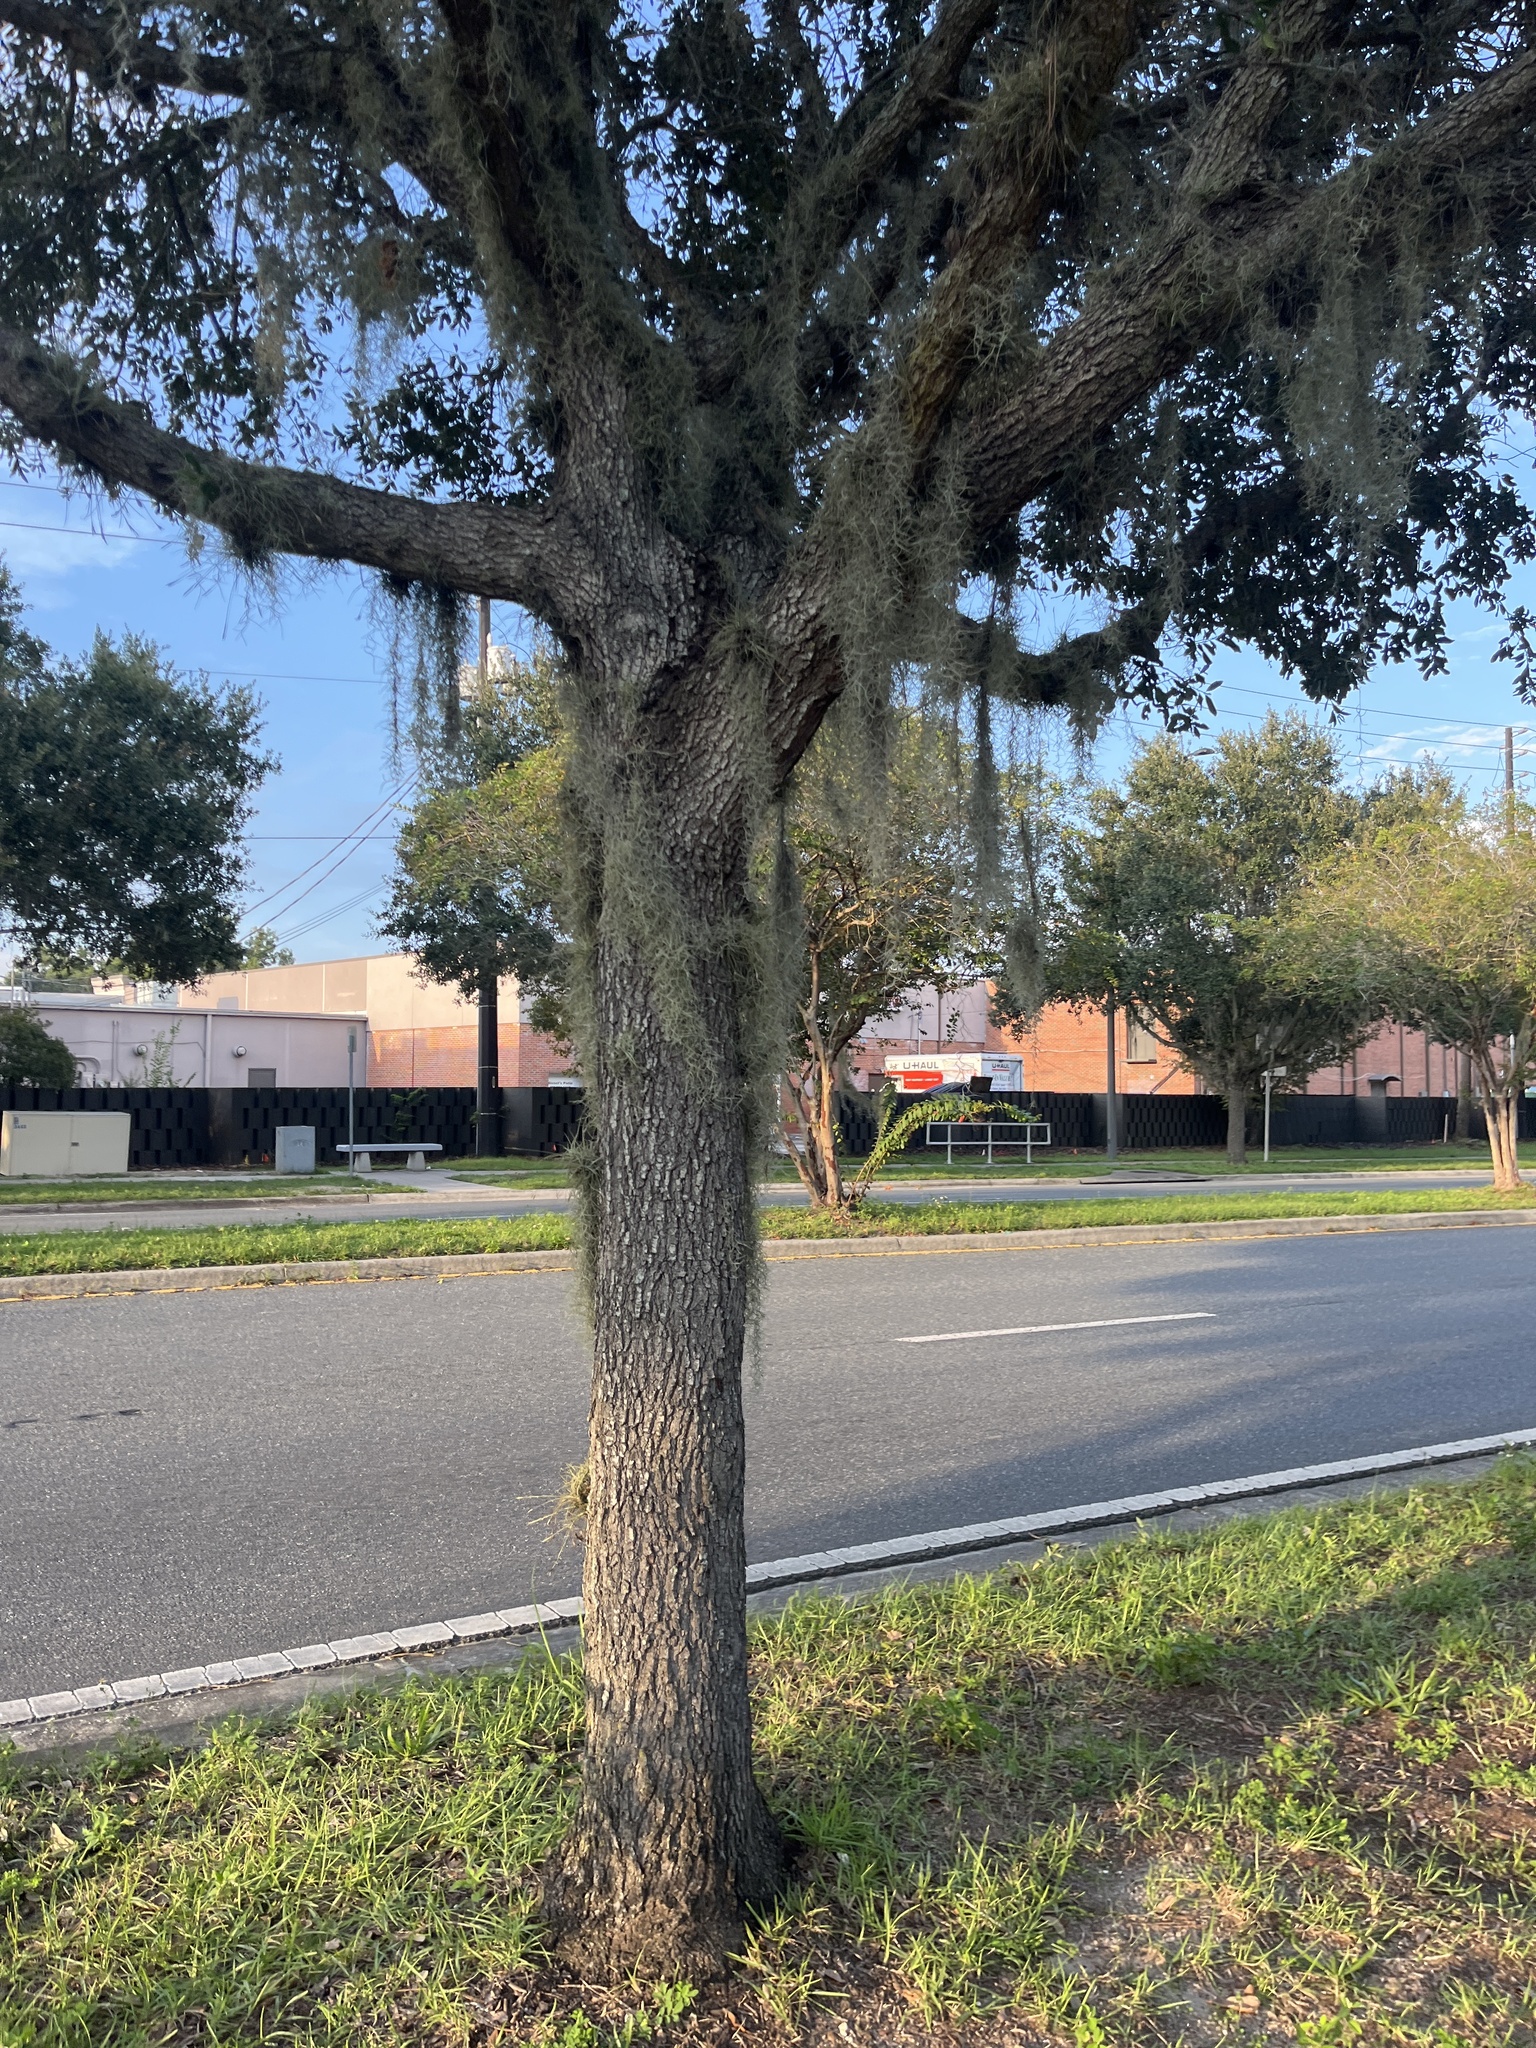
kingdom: Plantae
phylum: Tracheophyta
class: Liliopsida
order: Poales
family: Bromeliaceae
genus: Tillandsia
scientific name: Tillandsia usneoides
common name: Spanish moss
